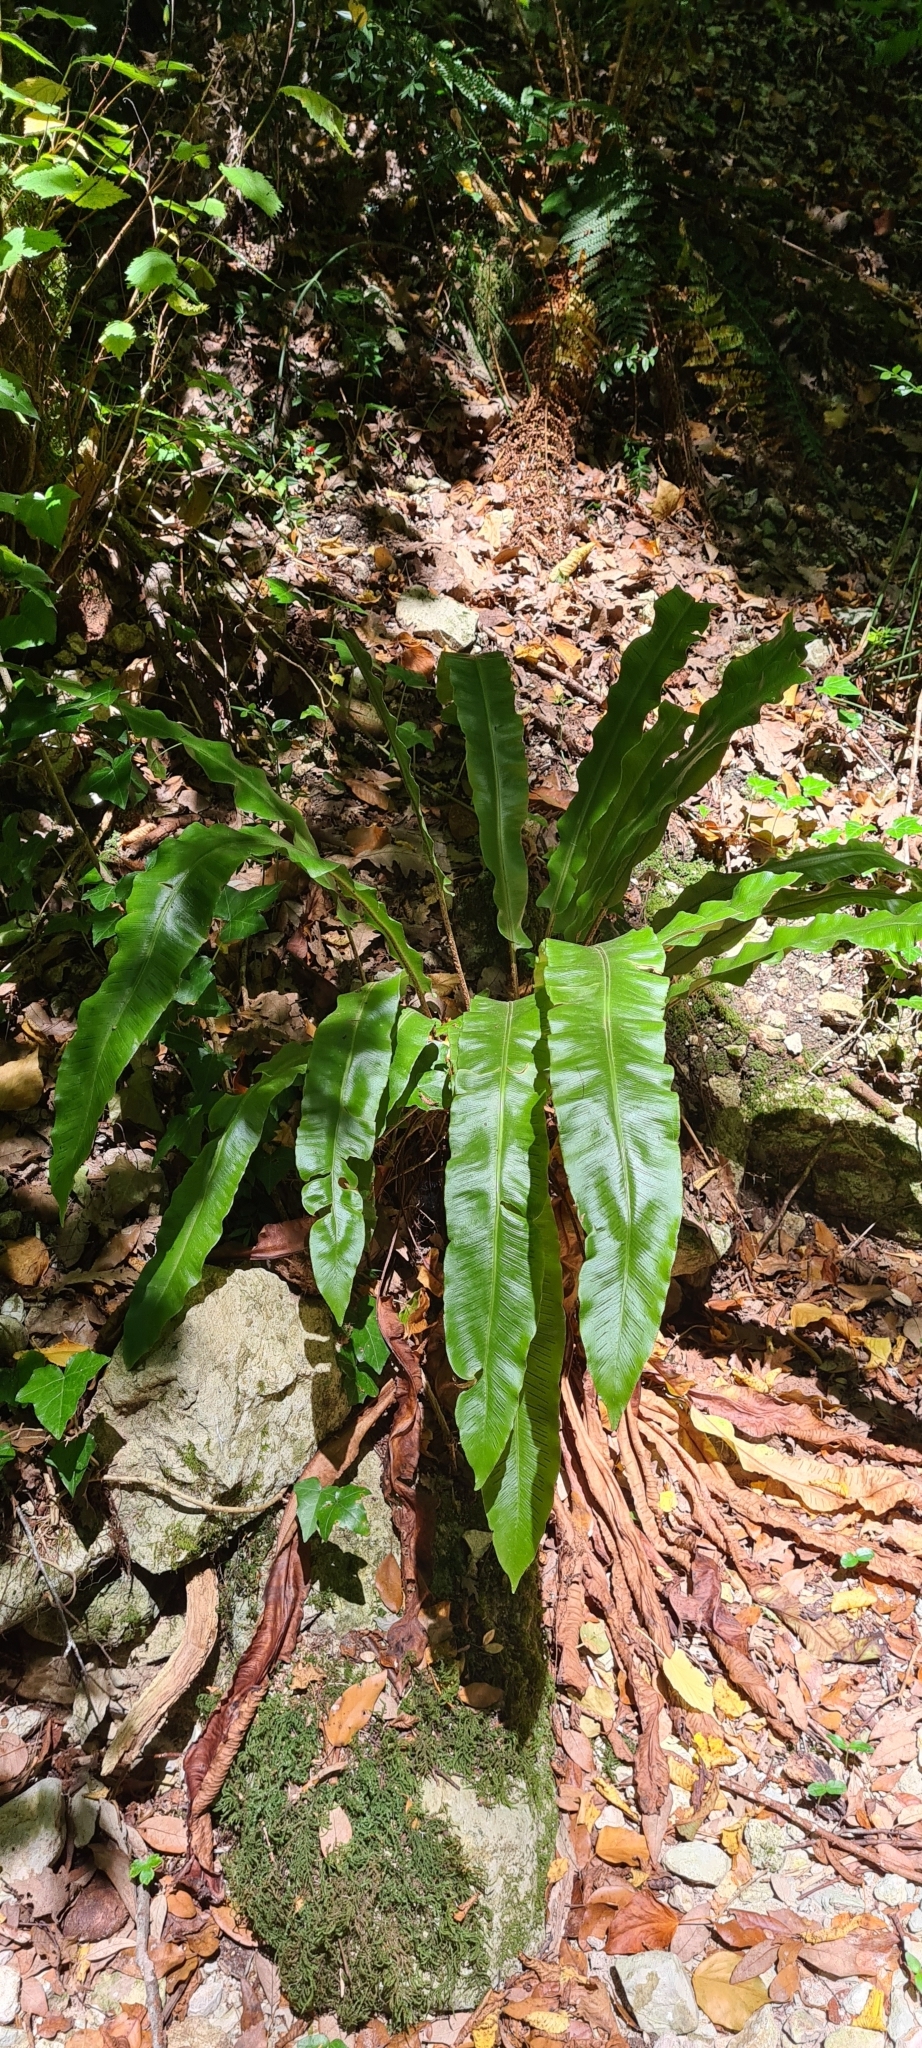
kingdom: Plantae
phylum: Tracheophyta
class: Polypodiopsida
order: Polypodiales
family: Aspleniaceae
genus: Asplenium
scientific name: Asplenium scolopendrium
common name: Hart's-tongue fern
